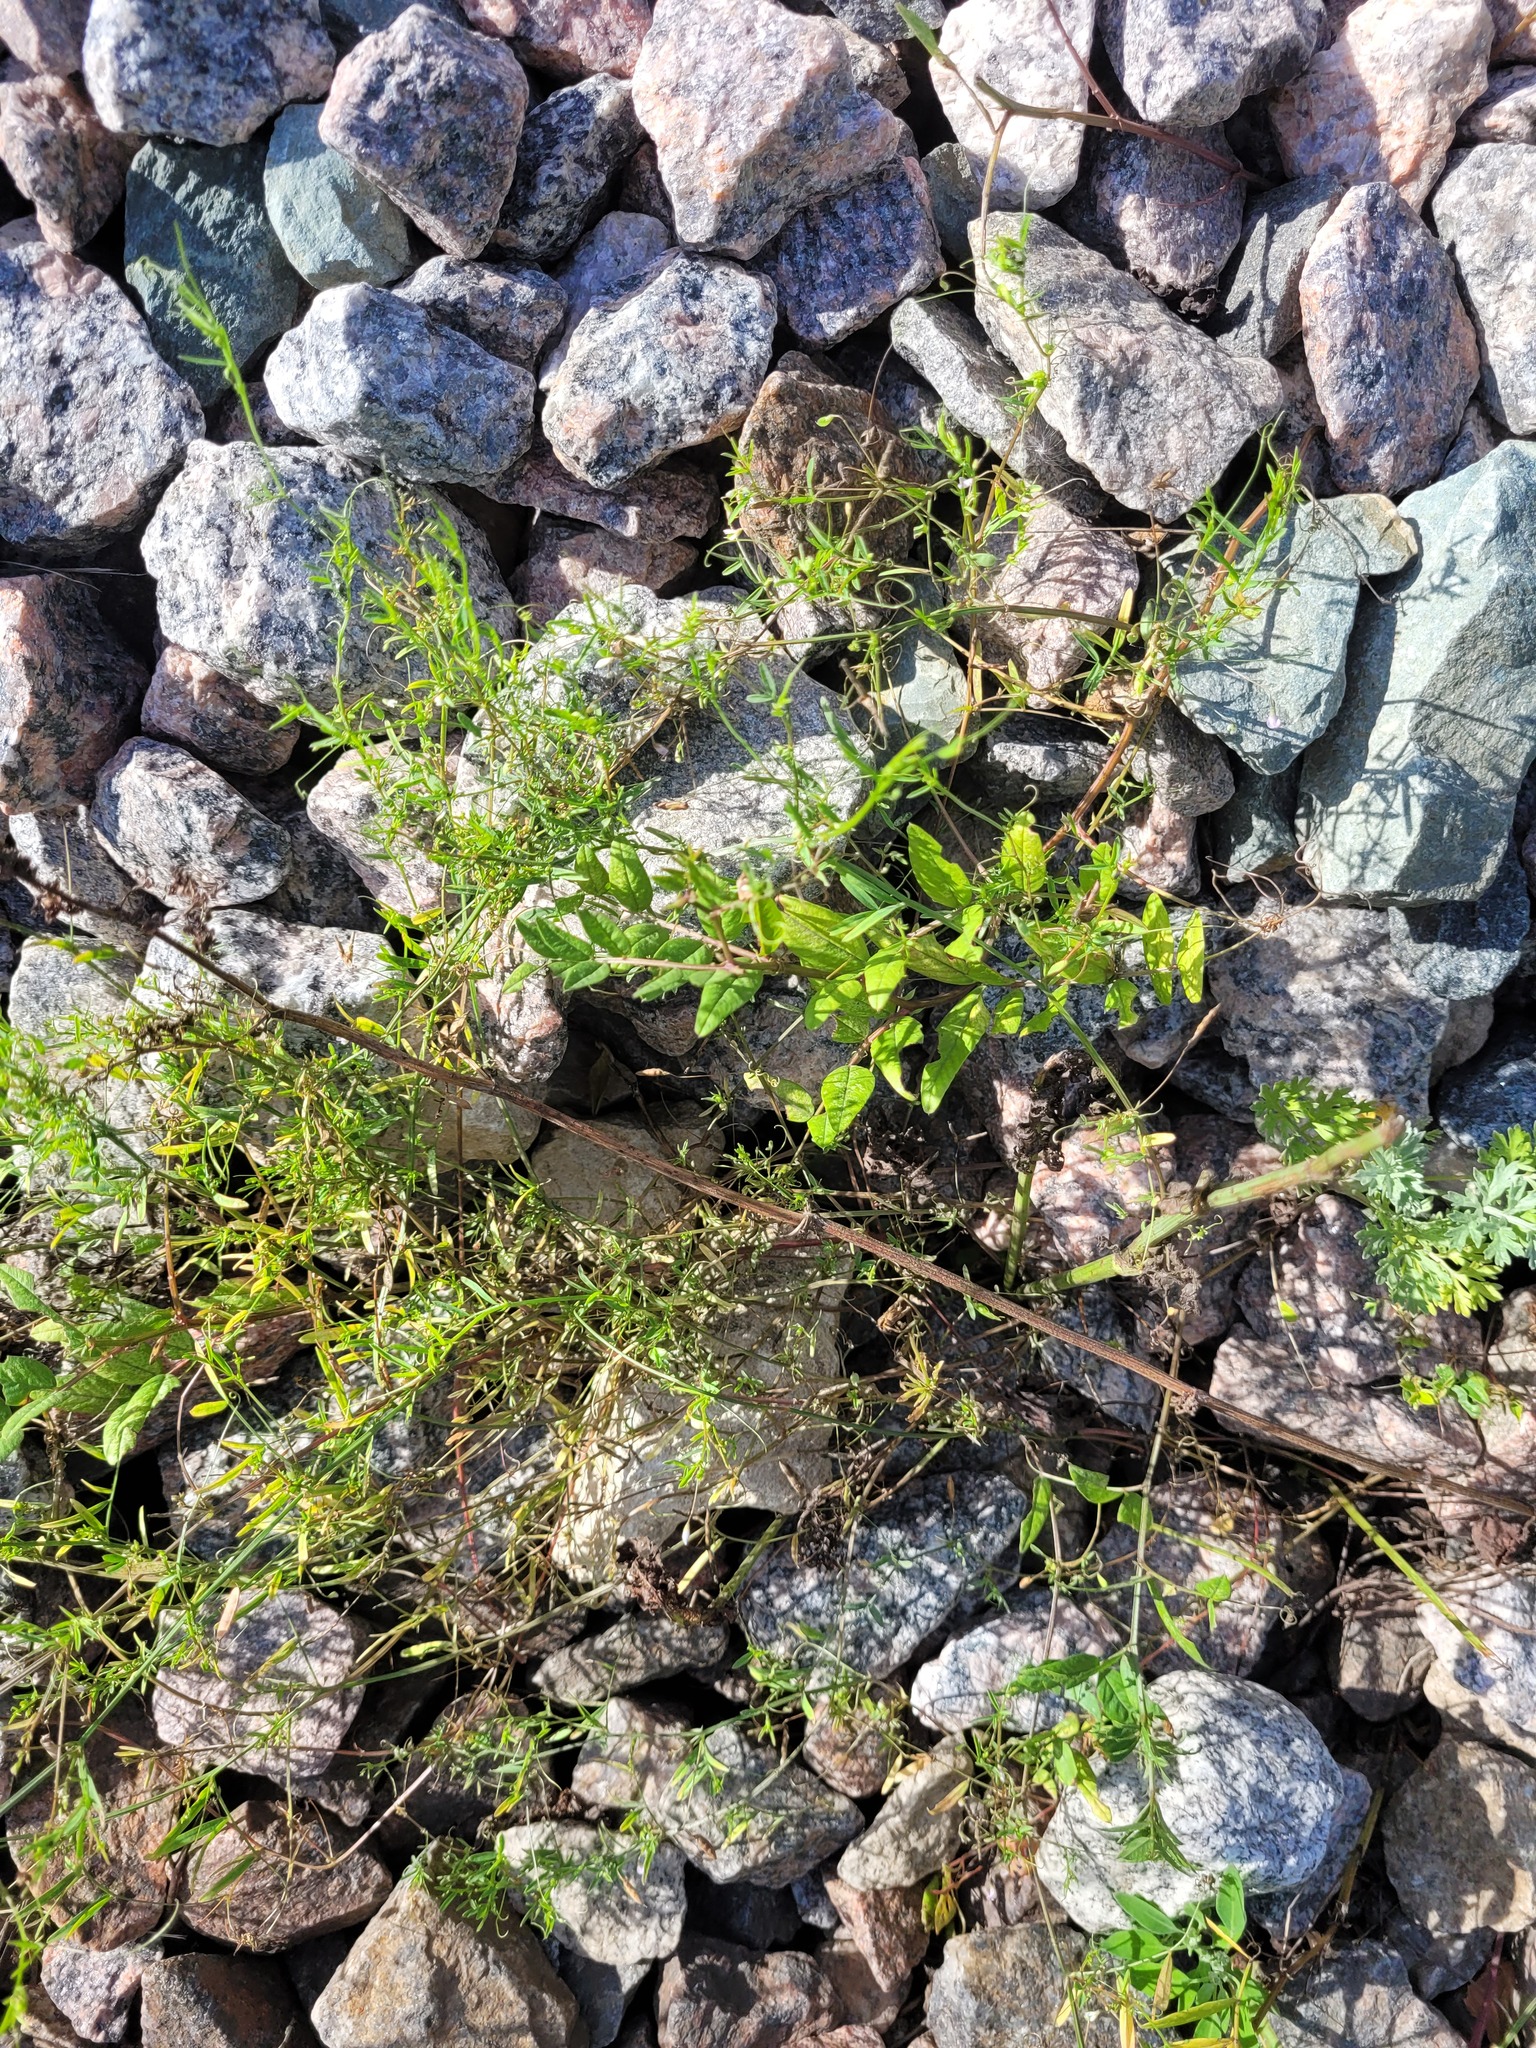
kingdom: Plantae
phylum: Tracheophyta
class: Magnoliopsida
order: Fabales
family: Fabaceae
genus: Vicia
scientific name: Vicia tetrasperma
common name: Smooth tare
